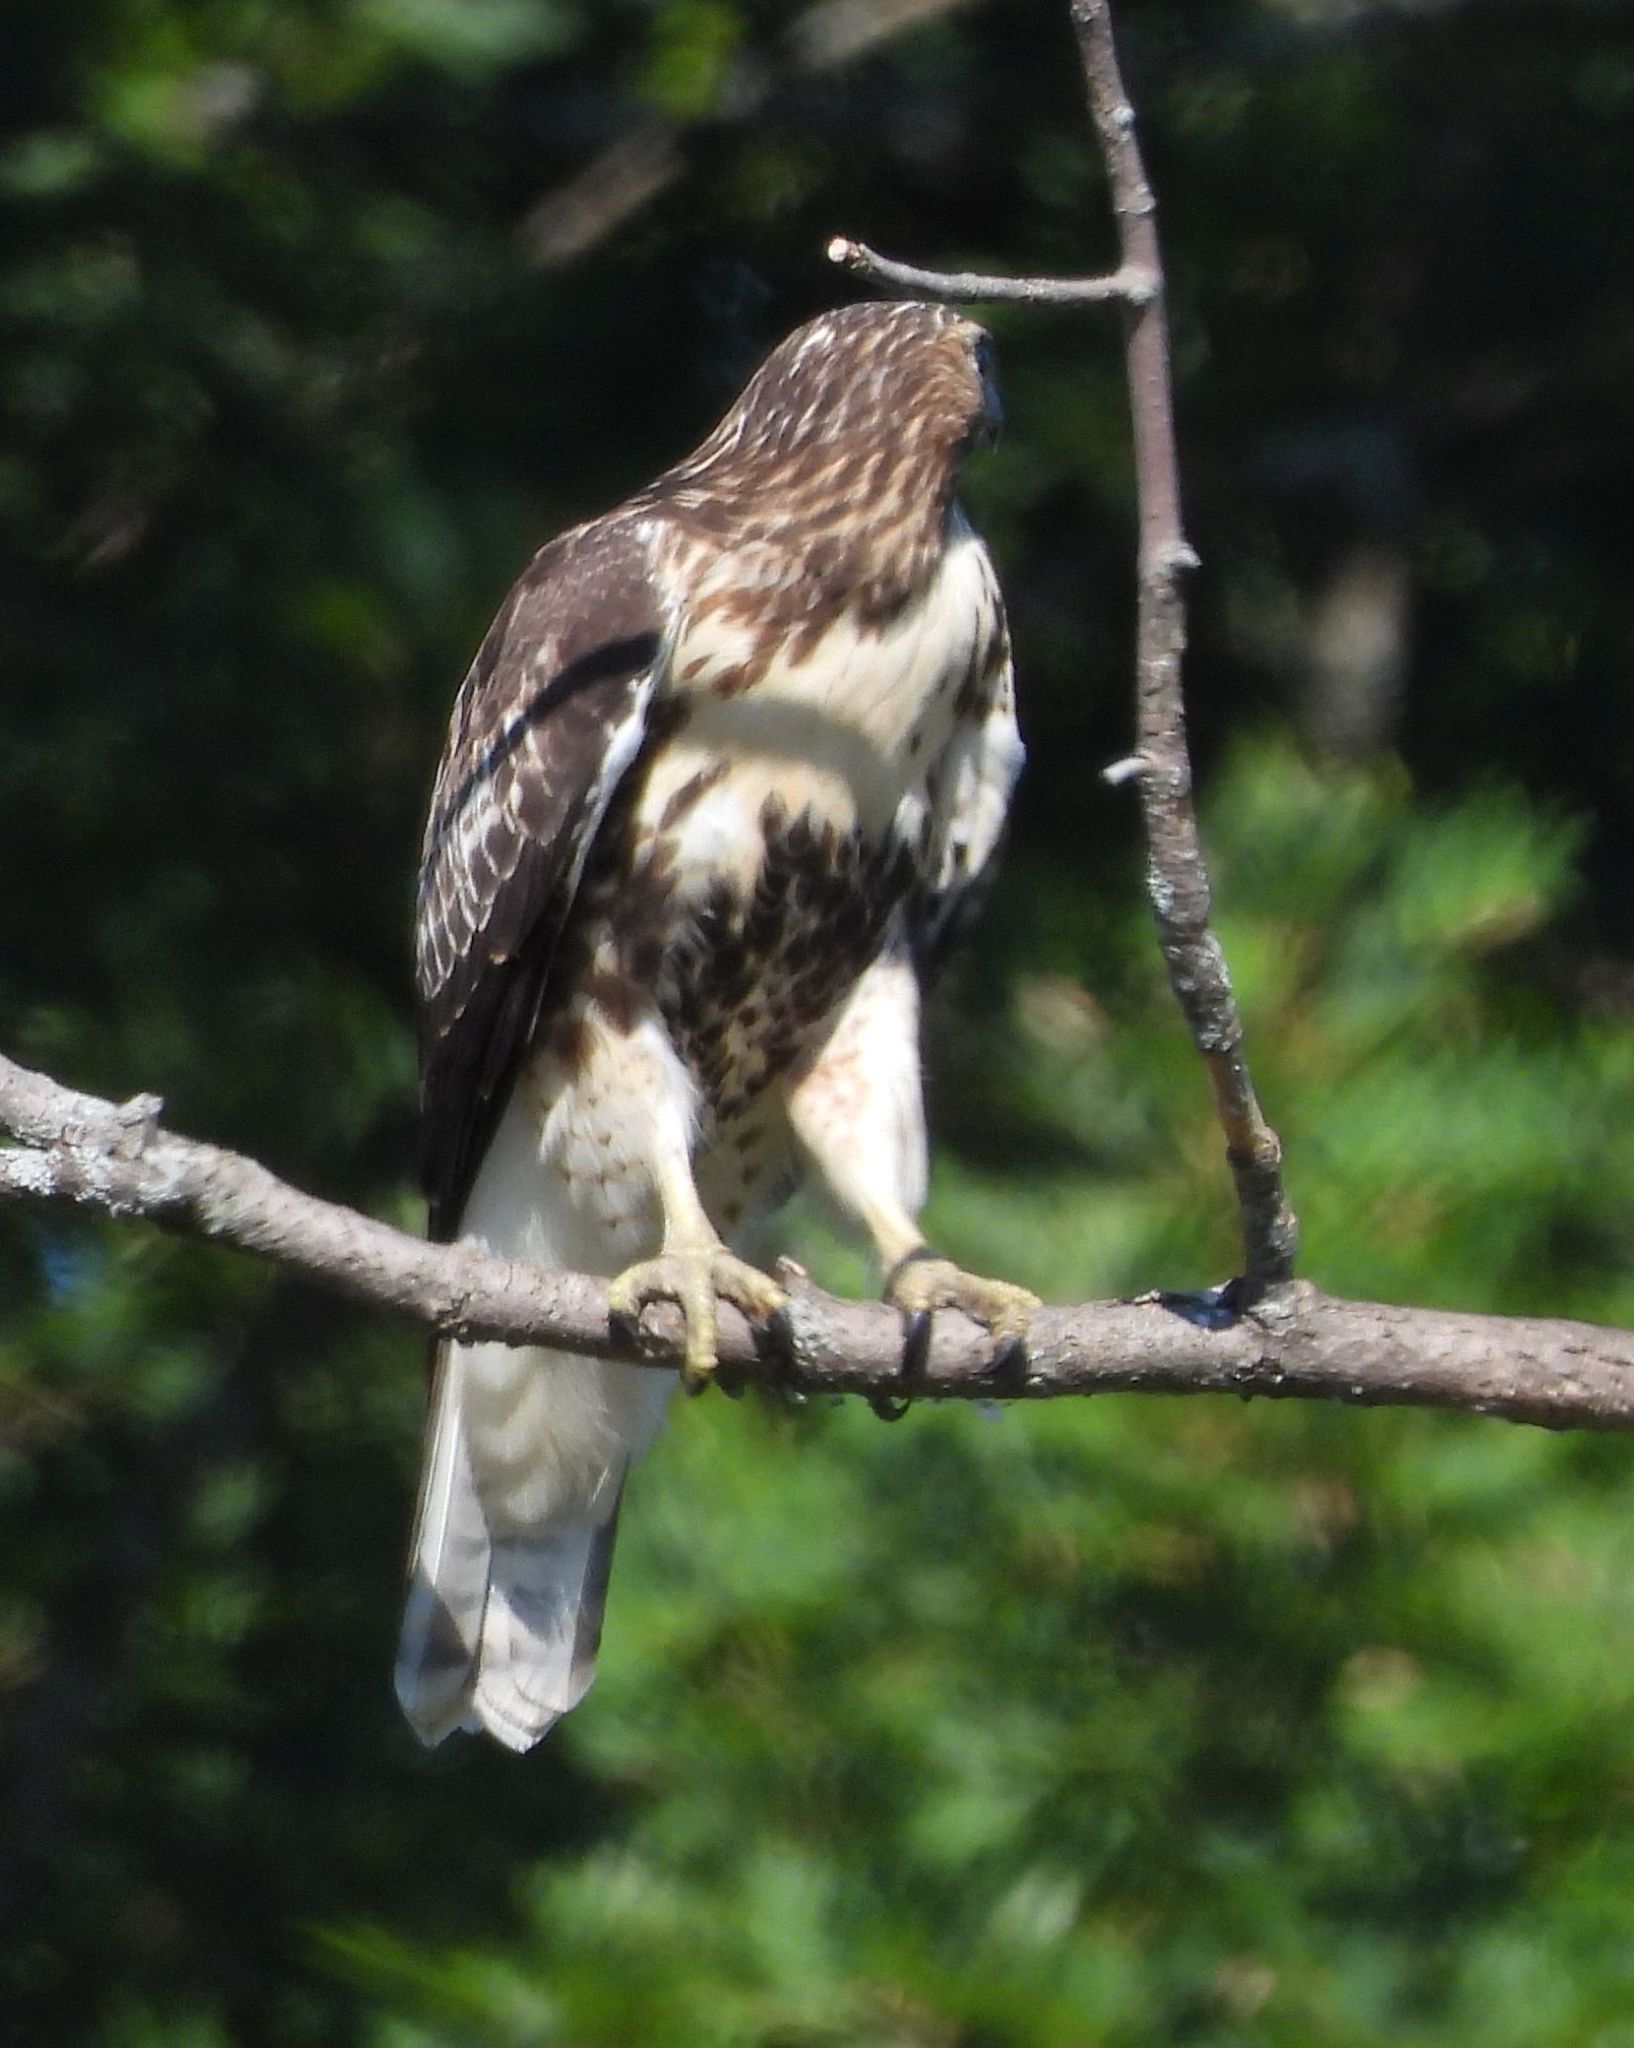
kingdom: Animalia
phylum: Chordata
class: Aves
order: Accipitriformes
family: Accipitridae
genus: Buteo
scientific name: Buteo jamaicensis
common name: Red-tailed hawk
